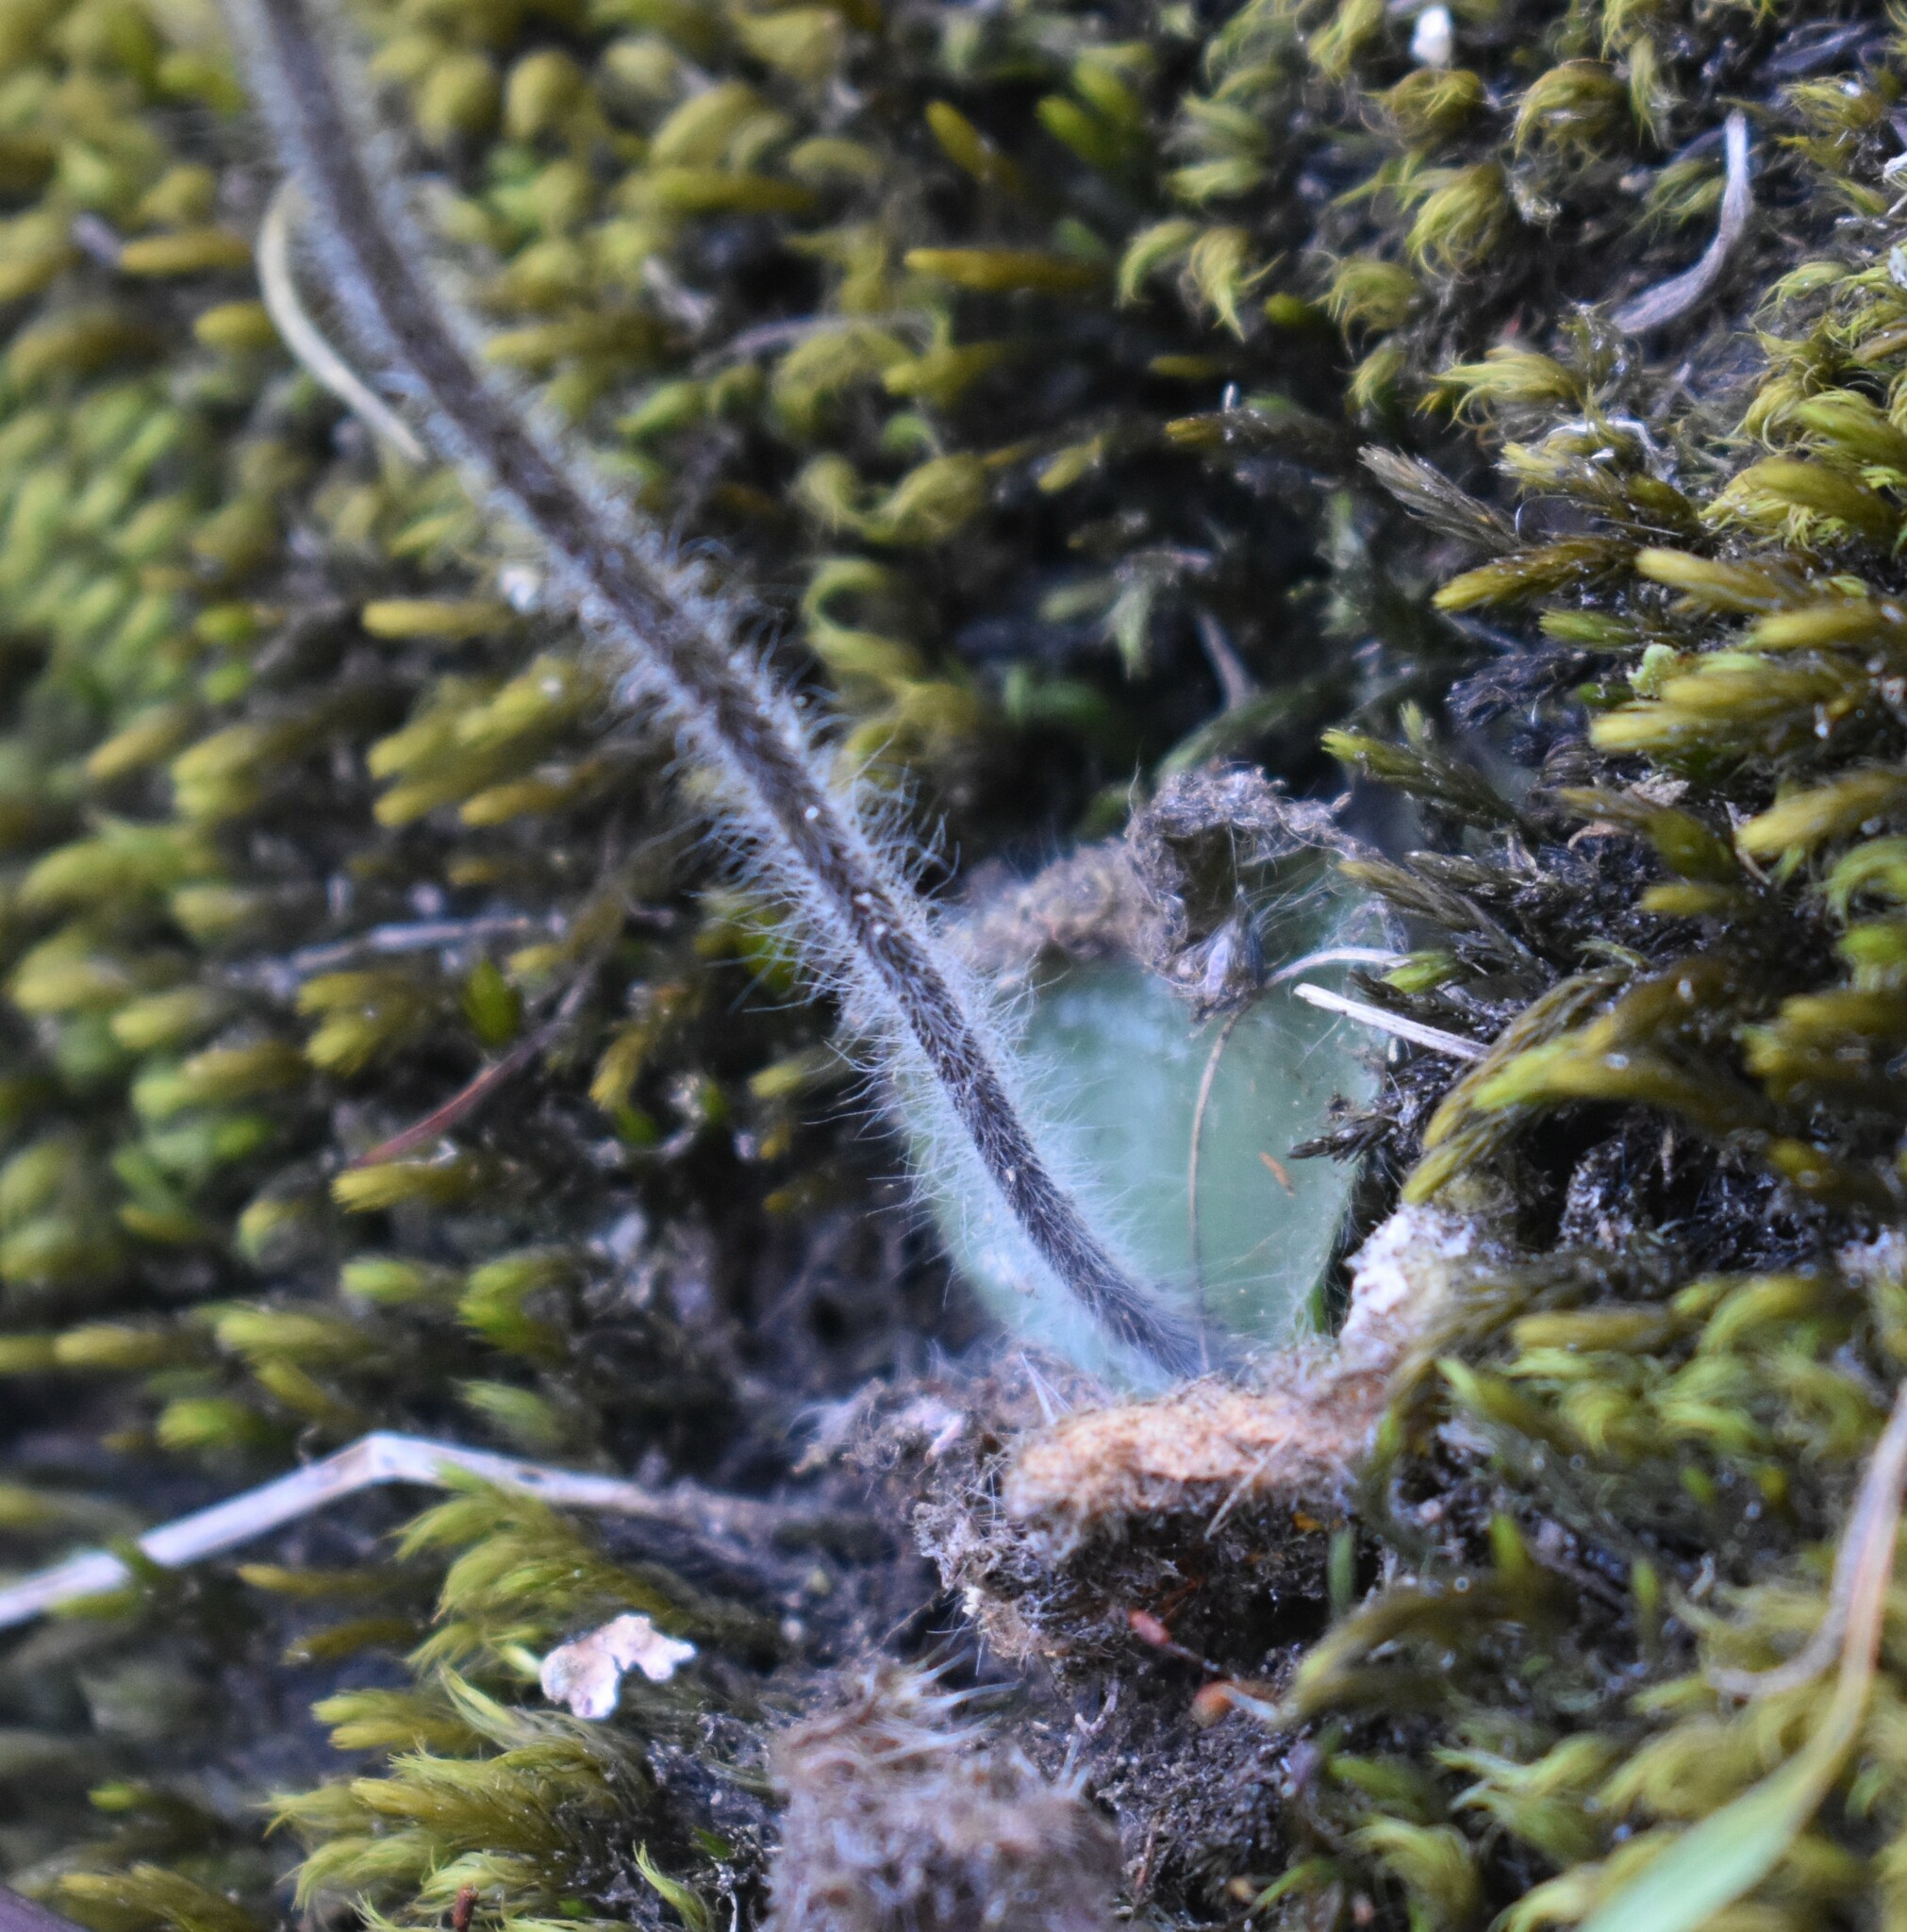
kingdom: Plantae
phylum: Tracheophyta
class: Liliopsida
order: Asparagales
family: Orchidaceae
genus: Holothrix
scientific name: Holothrix villosa
